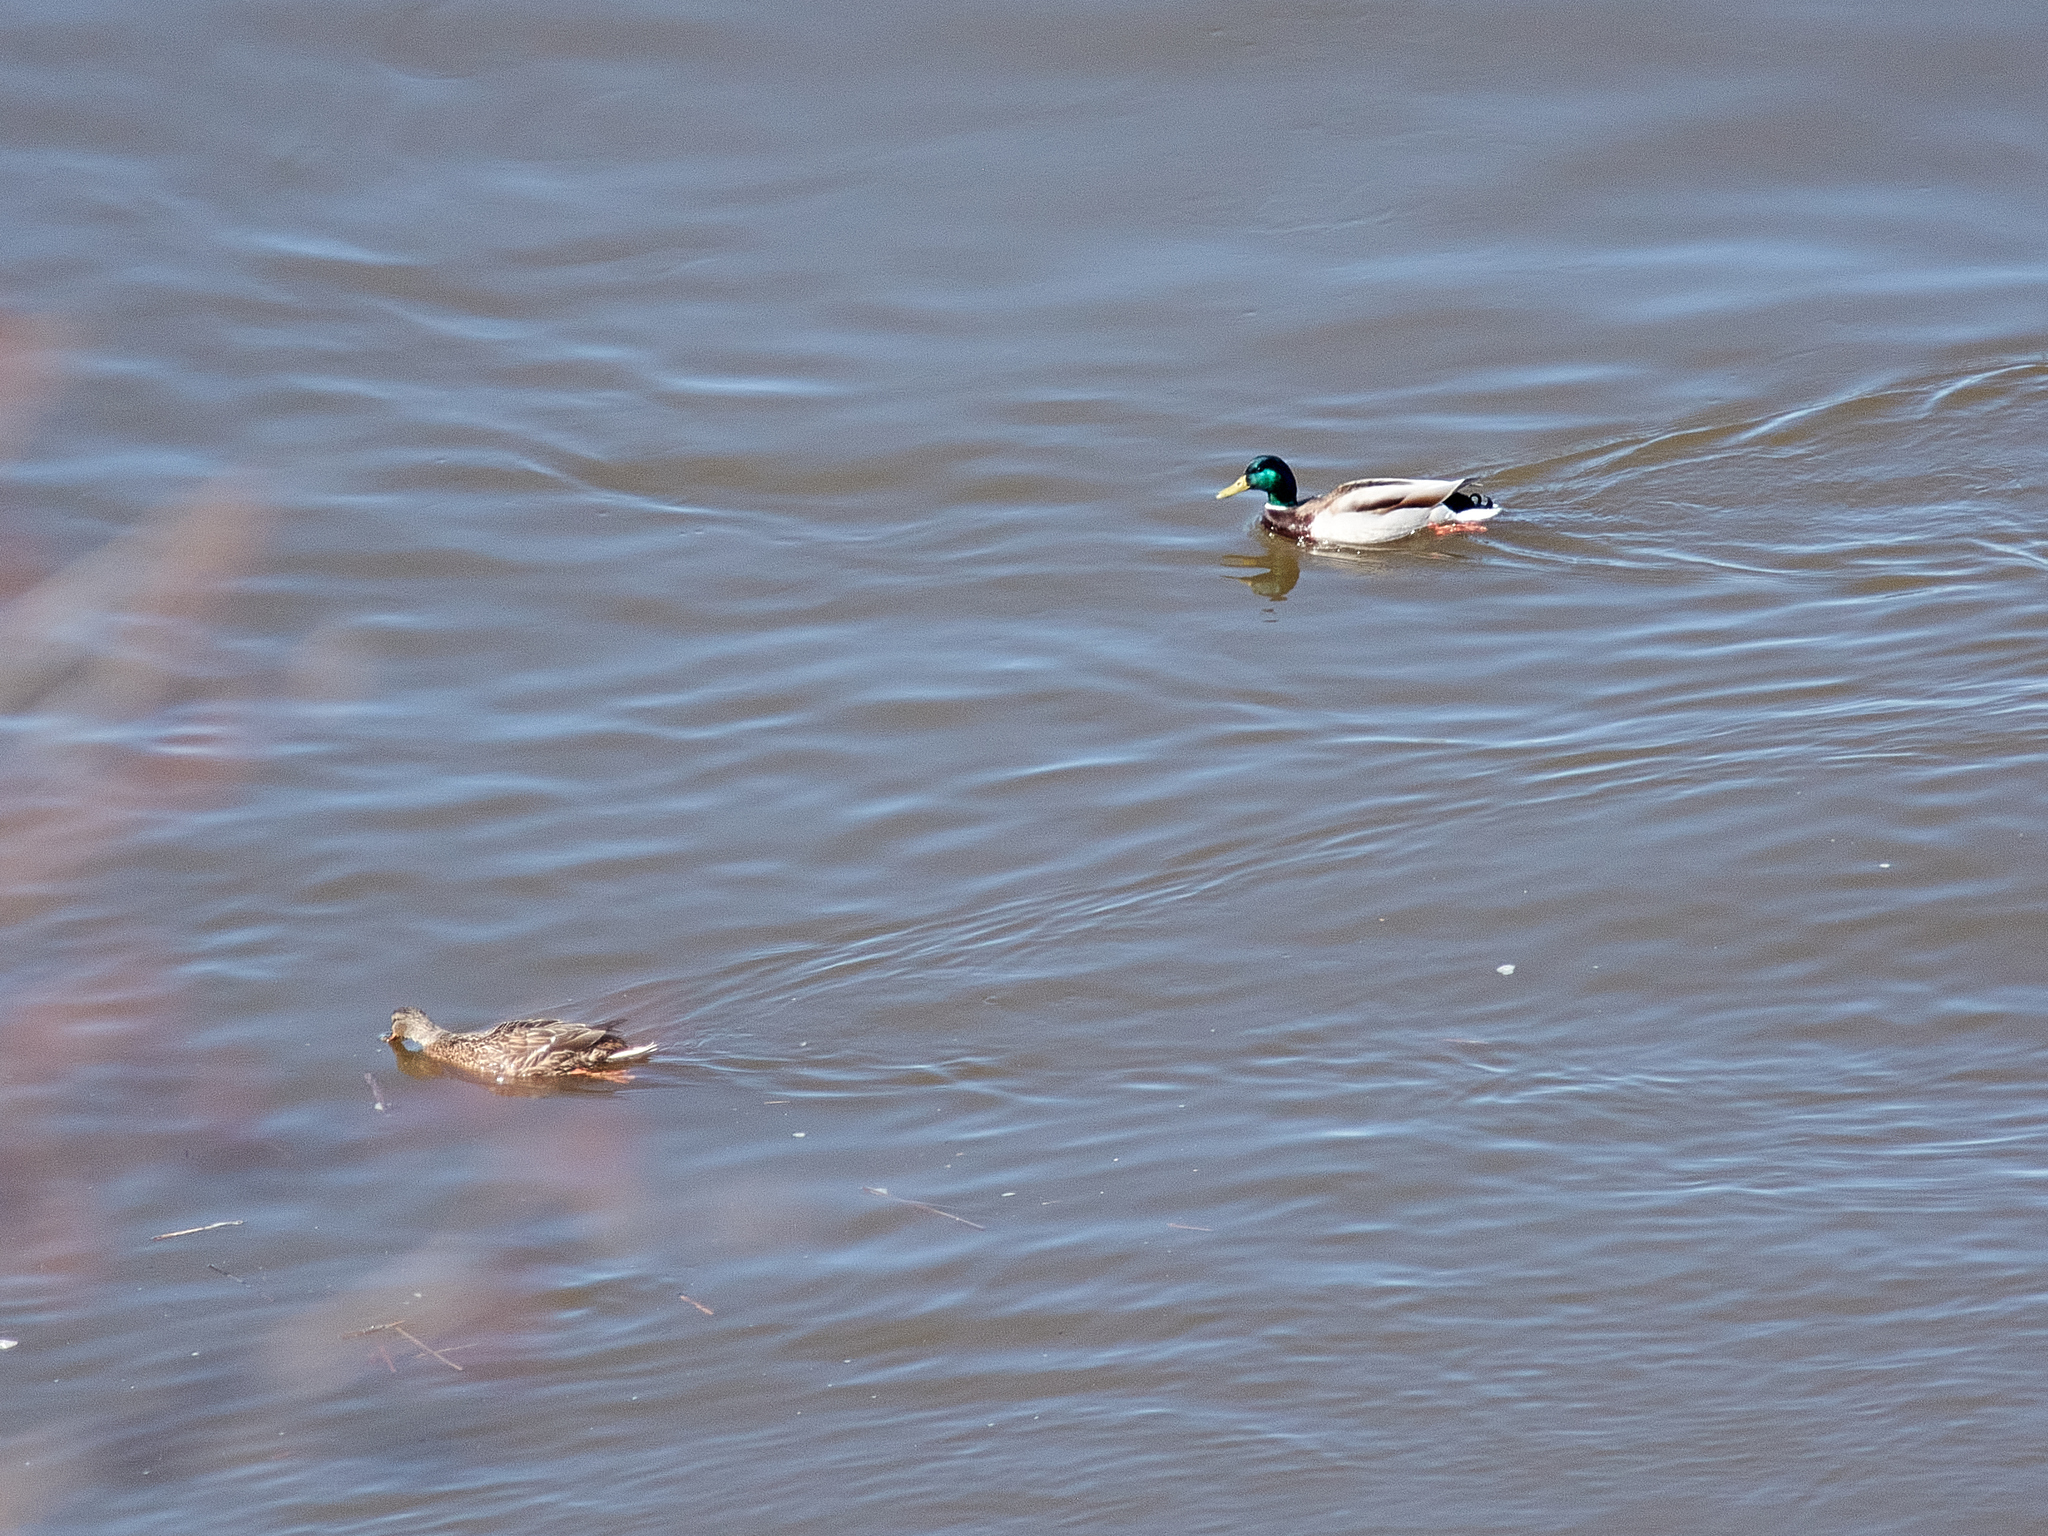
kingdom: Animalia
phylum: Chordata
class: Aves
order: Anseriformes
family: Anatidae
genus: Anas
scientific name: Anas platyrhynchos
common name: Mallard
